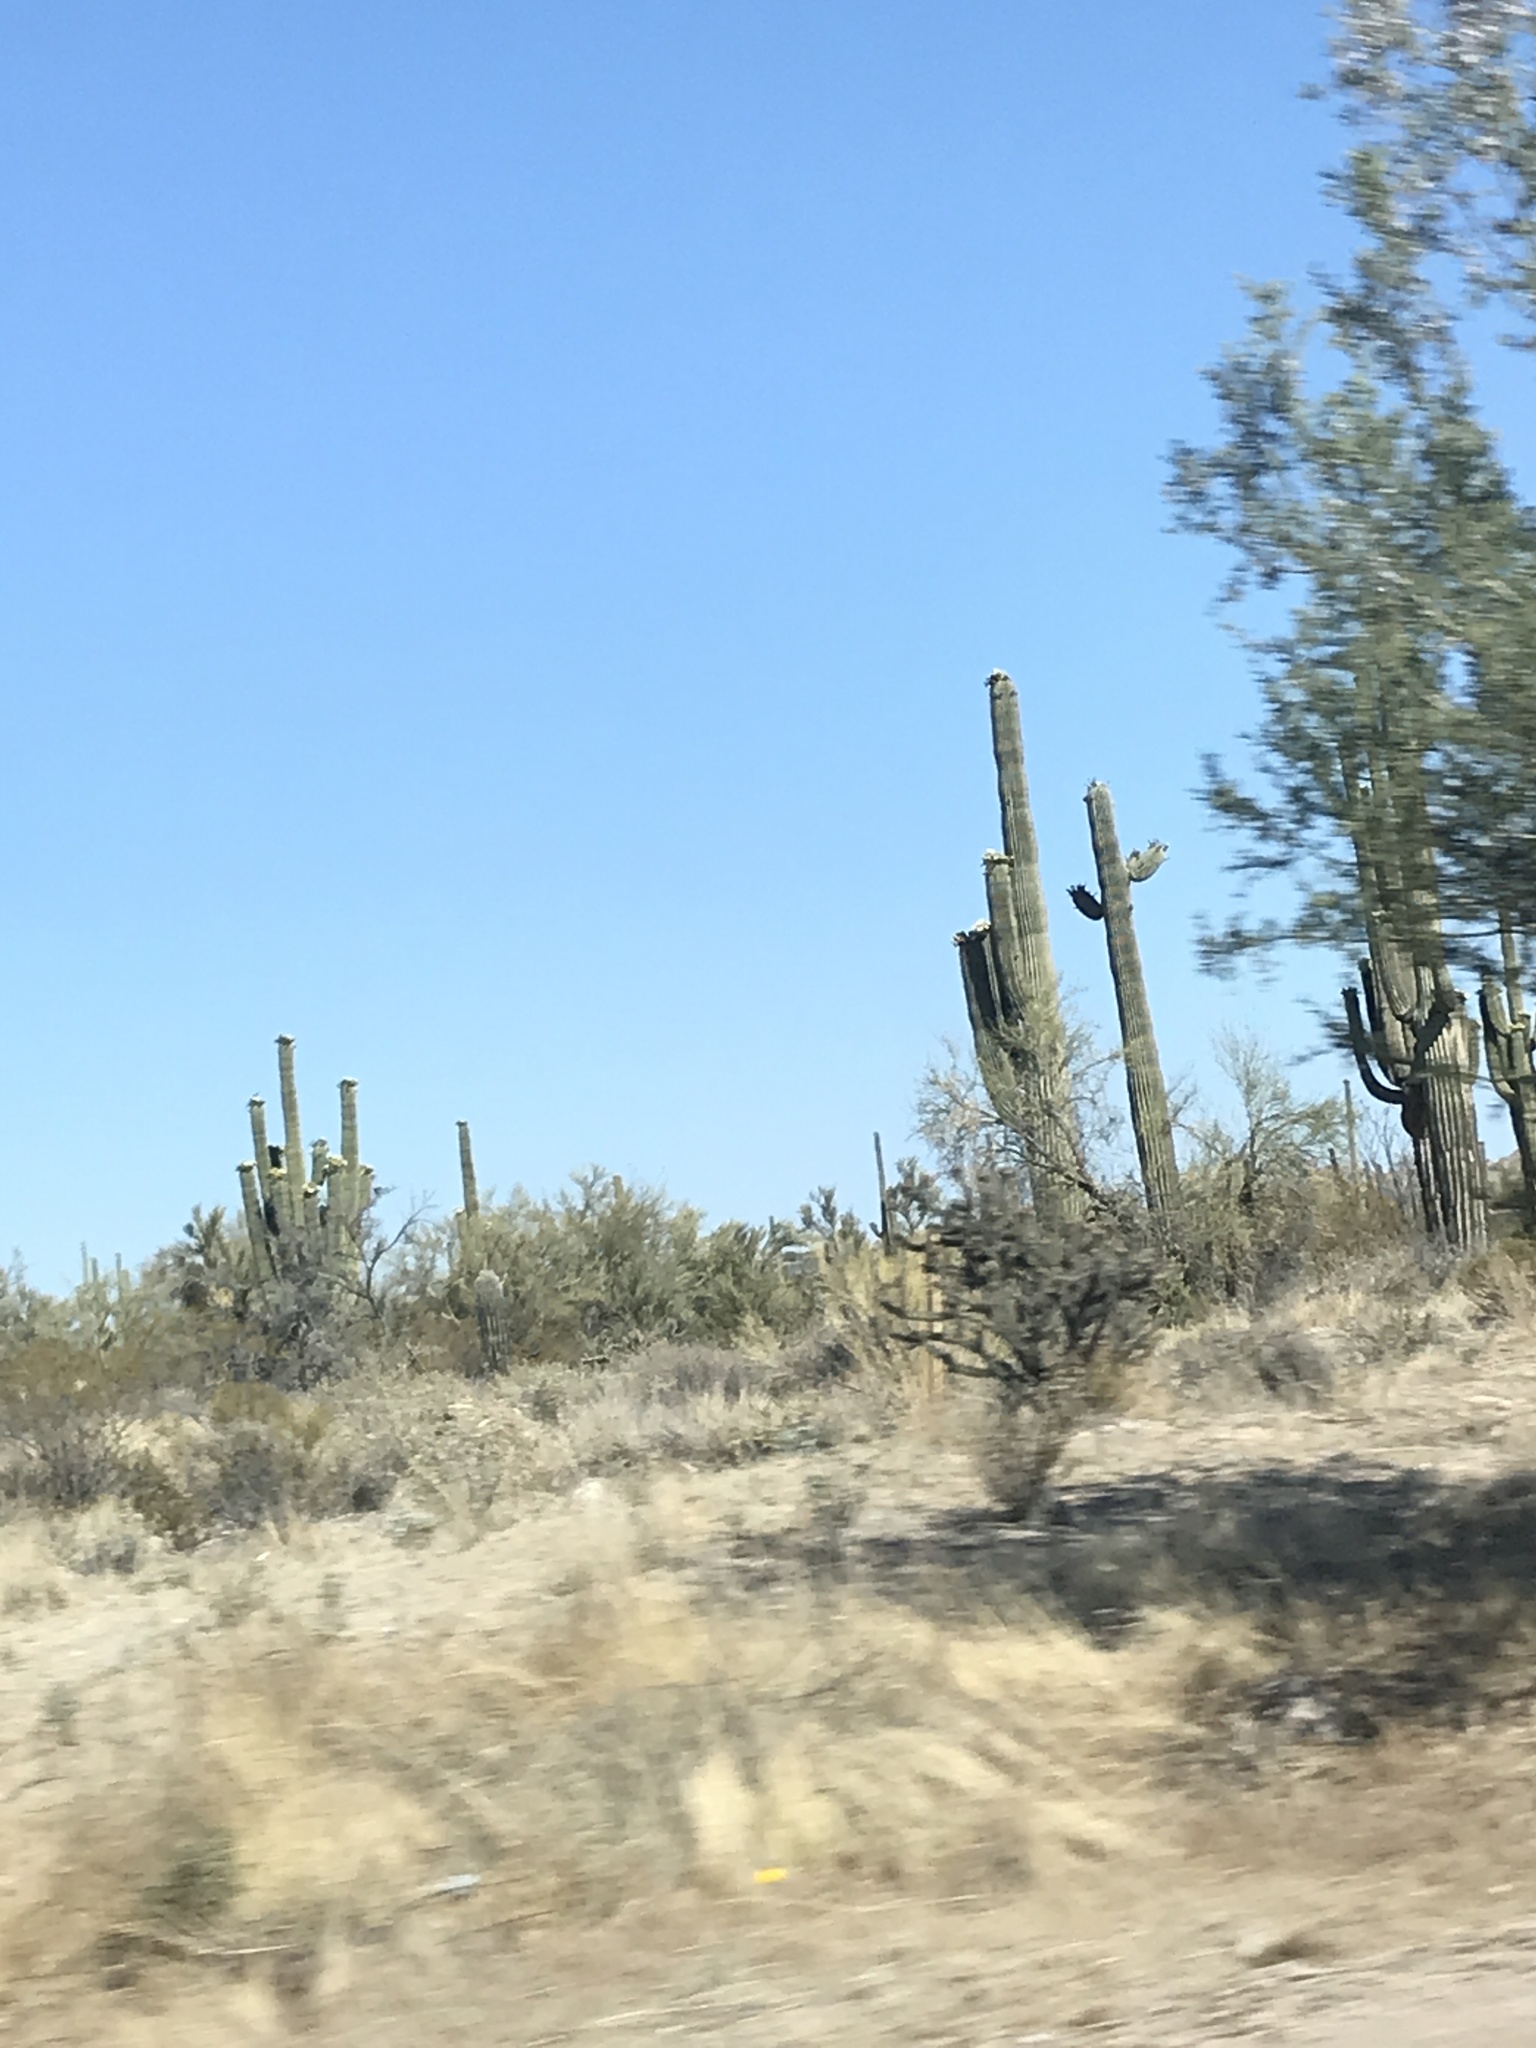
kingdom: Plantae
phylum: Tracheophyta
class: Magnoliopsida
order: Caryophyllales
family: Cactaceae
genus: Carnegiea
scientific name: Carnegiea gigantea
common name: Saguaro
